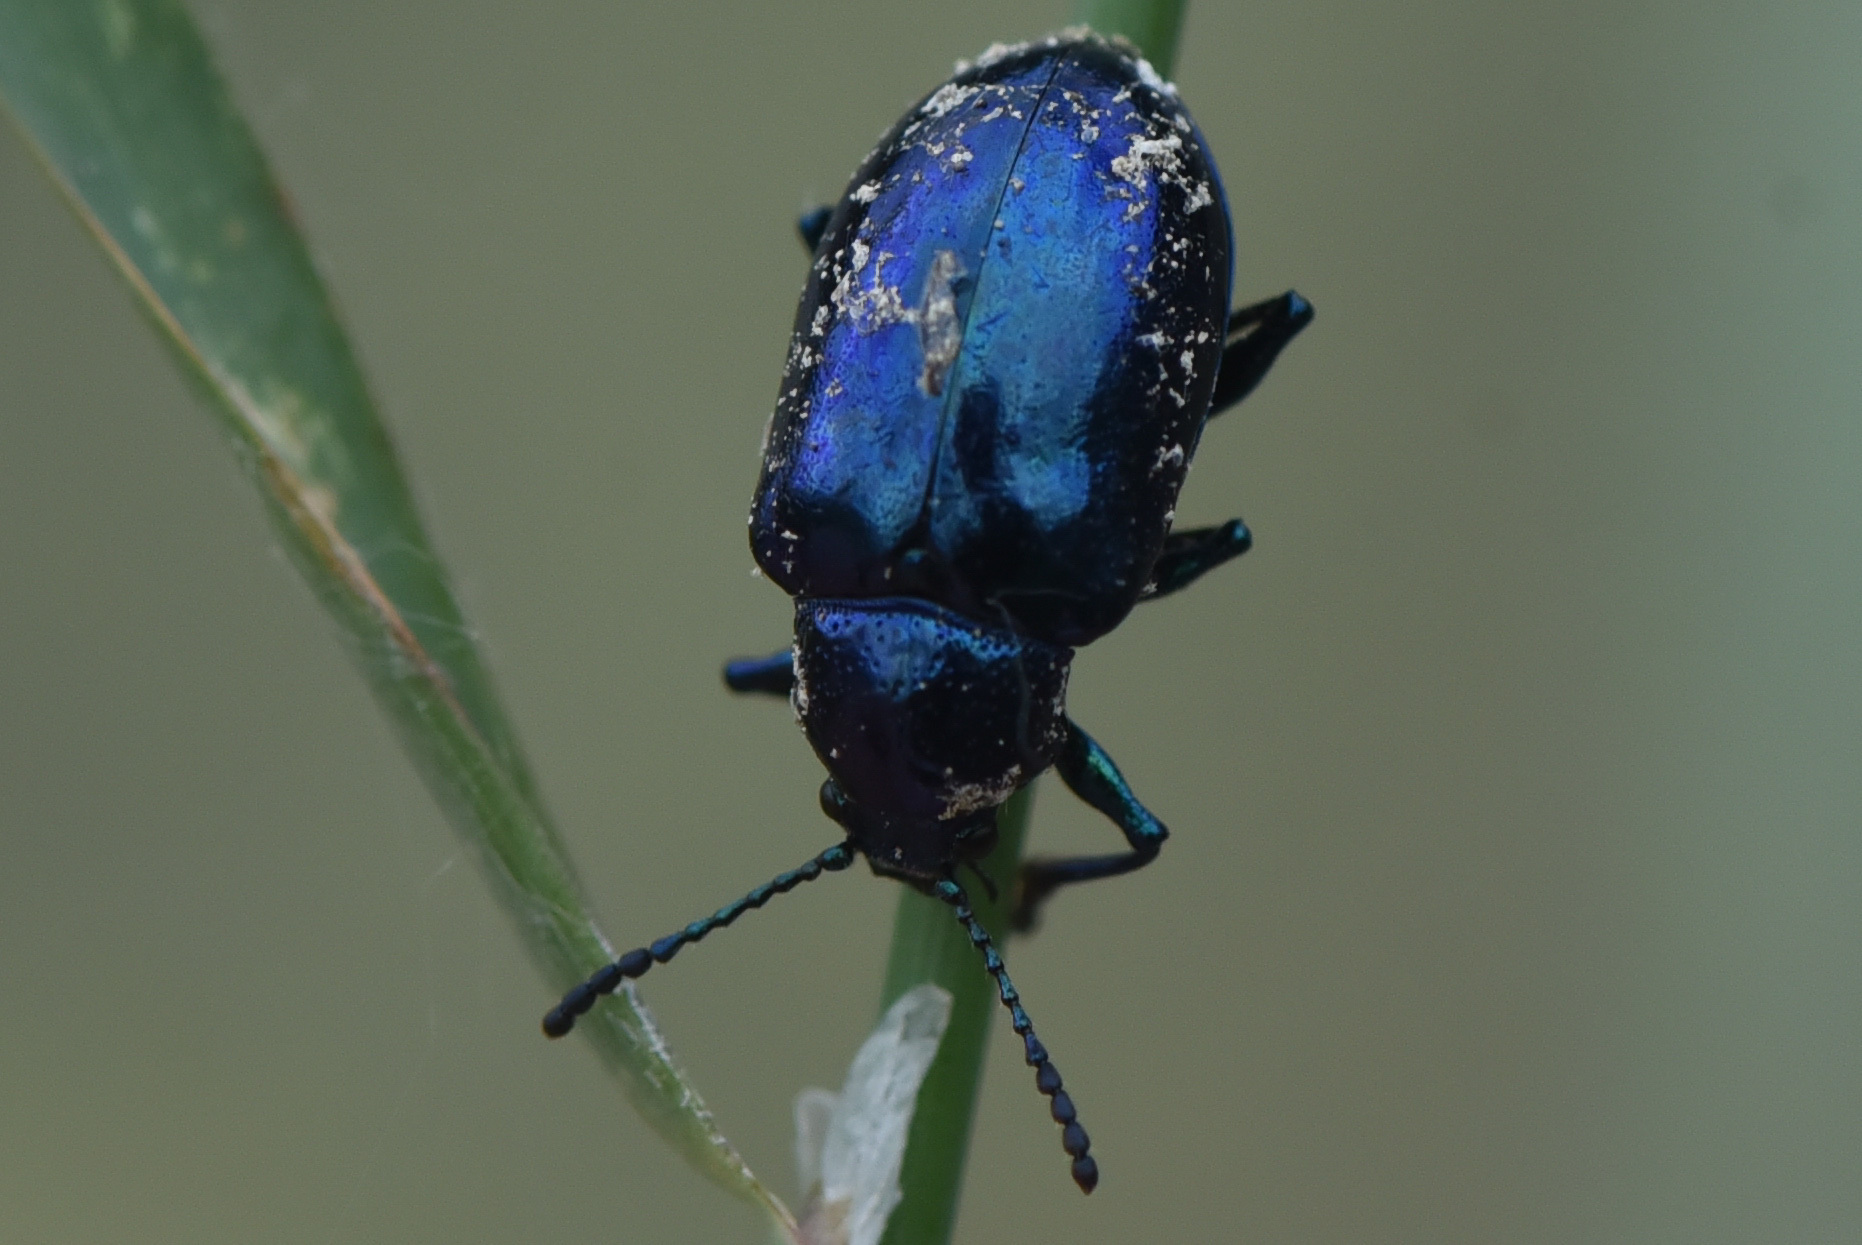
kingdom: Animalia
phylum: Arthropoda
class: Insecta
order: Coleoptera
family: Chrysomelidae
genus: Chrysochus
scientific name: Chrysochus cobaltinus
